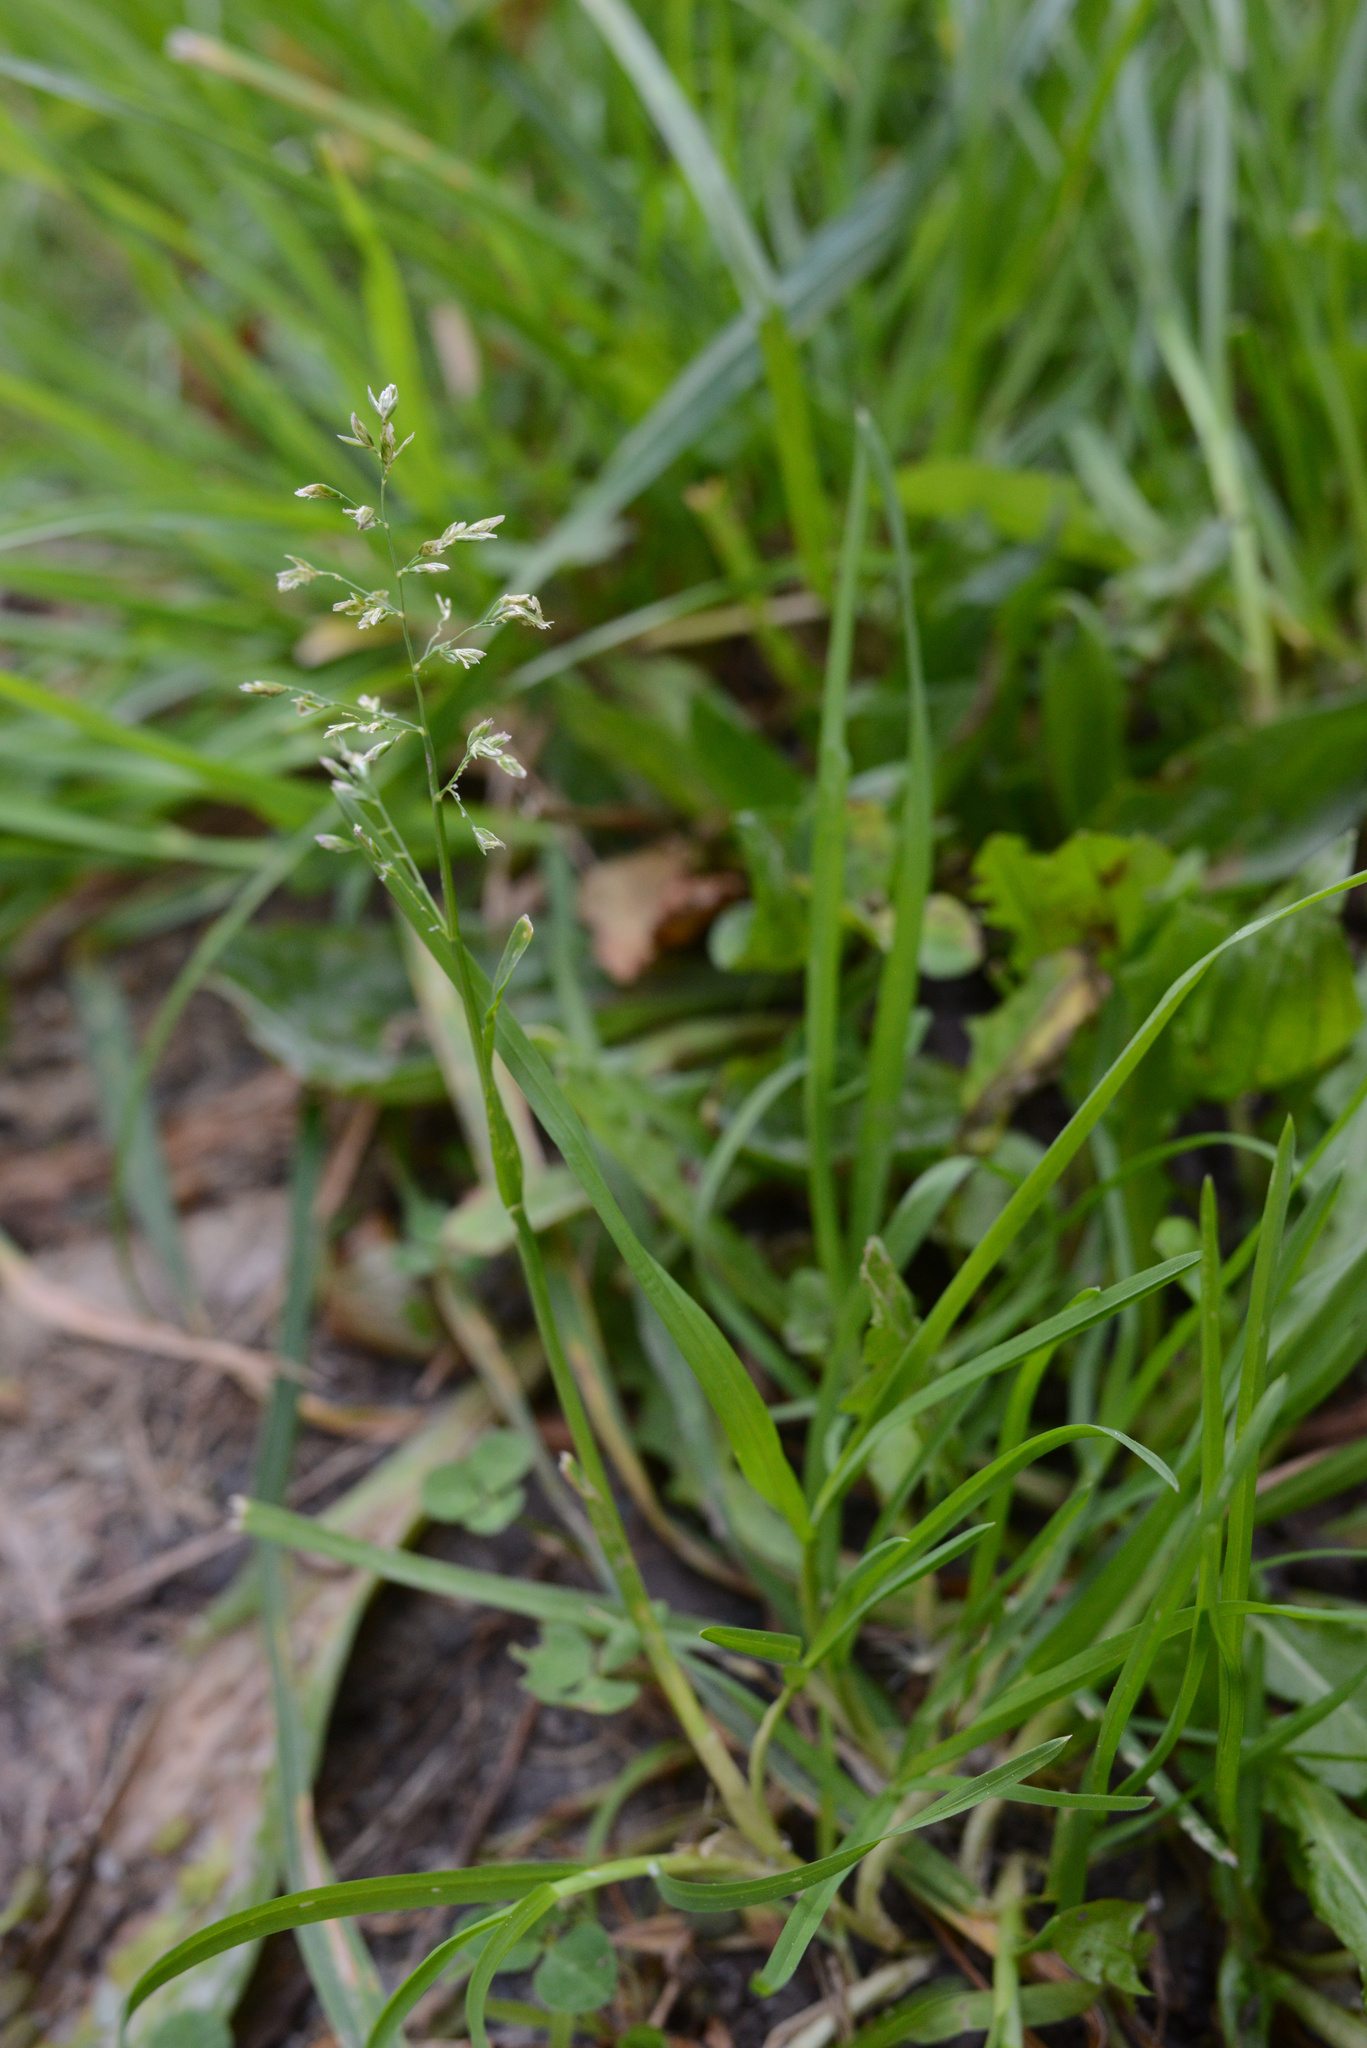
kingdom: Plantae
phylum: Tracheophyta
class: Liliopsida
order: Poales
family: Poaceae
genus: Poa
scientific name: Poa annua
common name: Annual bluegrass
